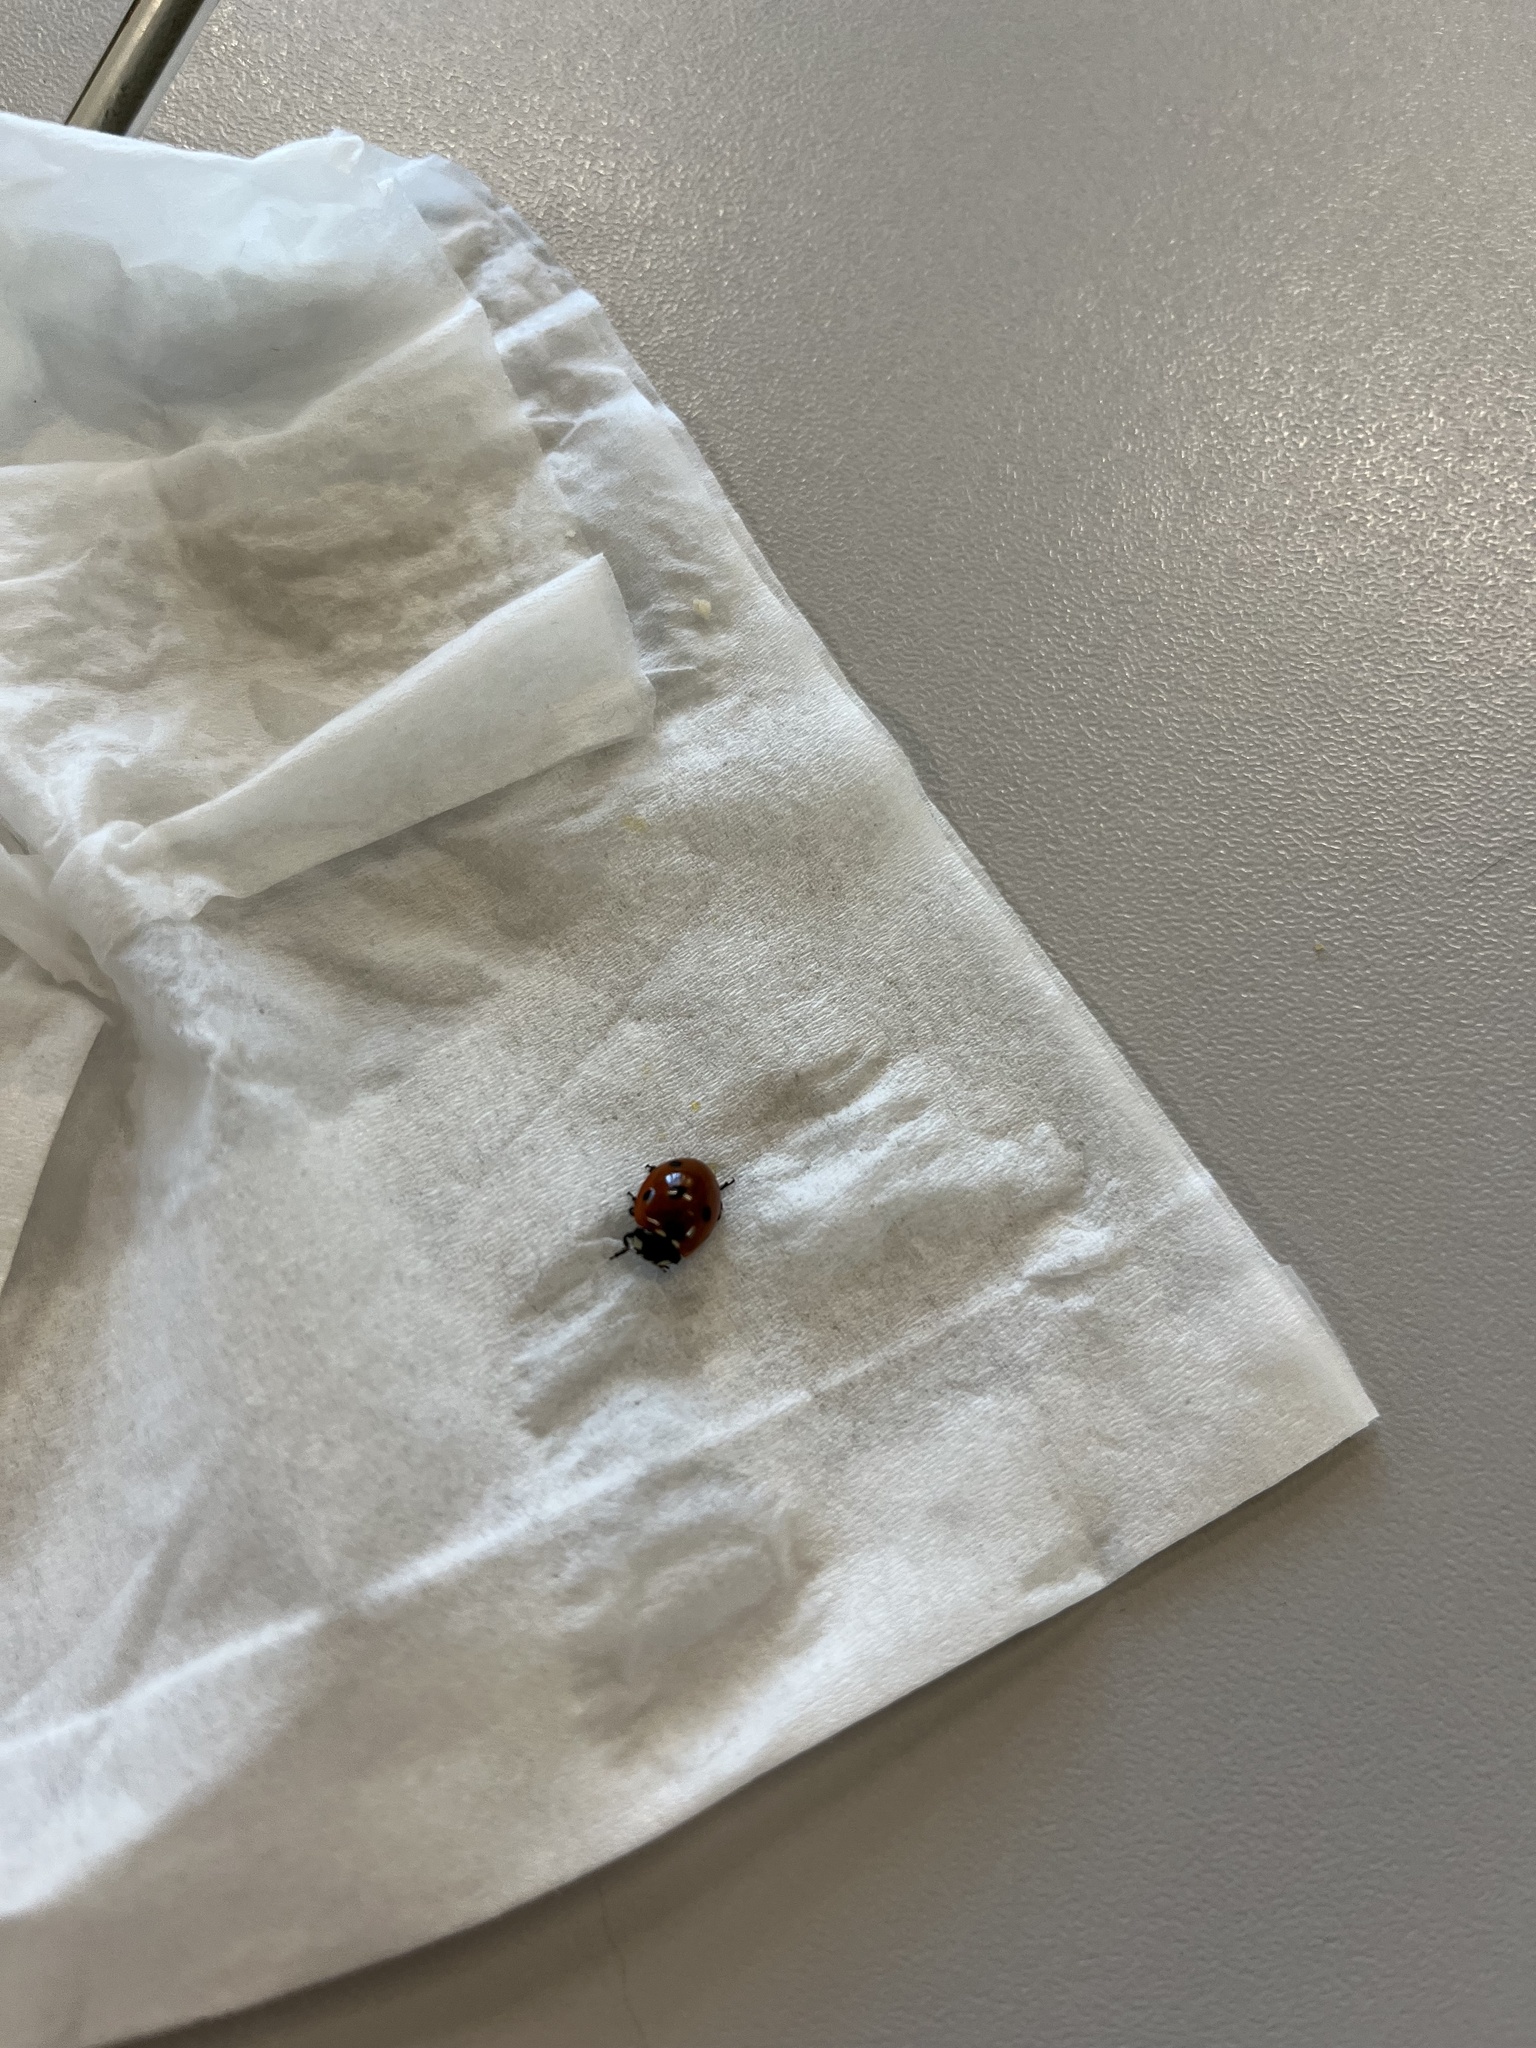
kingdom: Animalia
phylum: Arthropoda
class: Insecta
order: Coleoptera
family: Coccinellidae
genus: Coccinella
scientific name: Coccinella septempunctata
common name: Sevenspotted lady beetle
